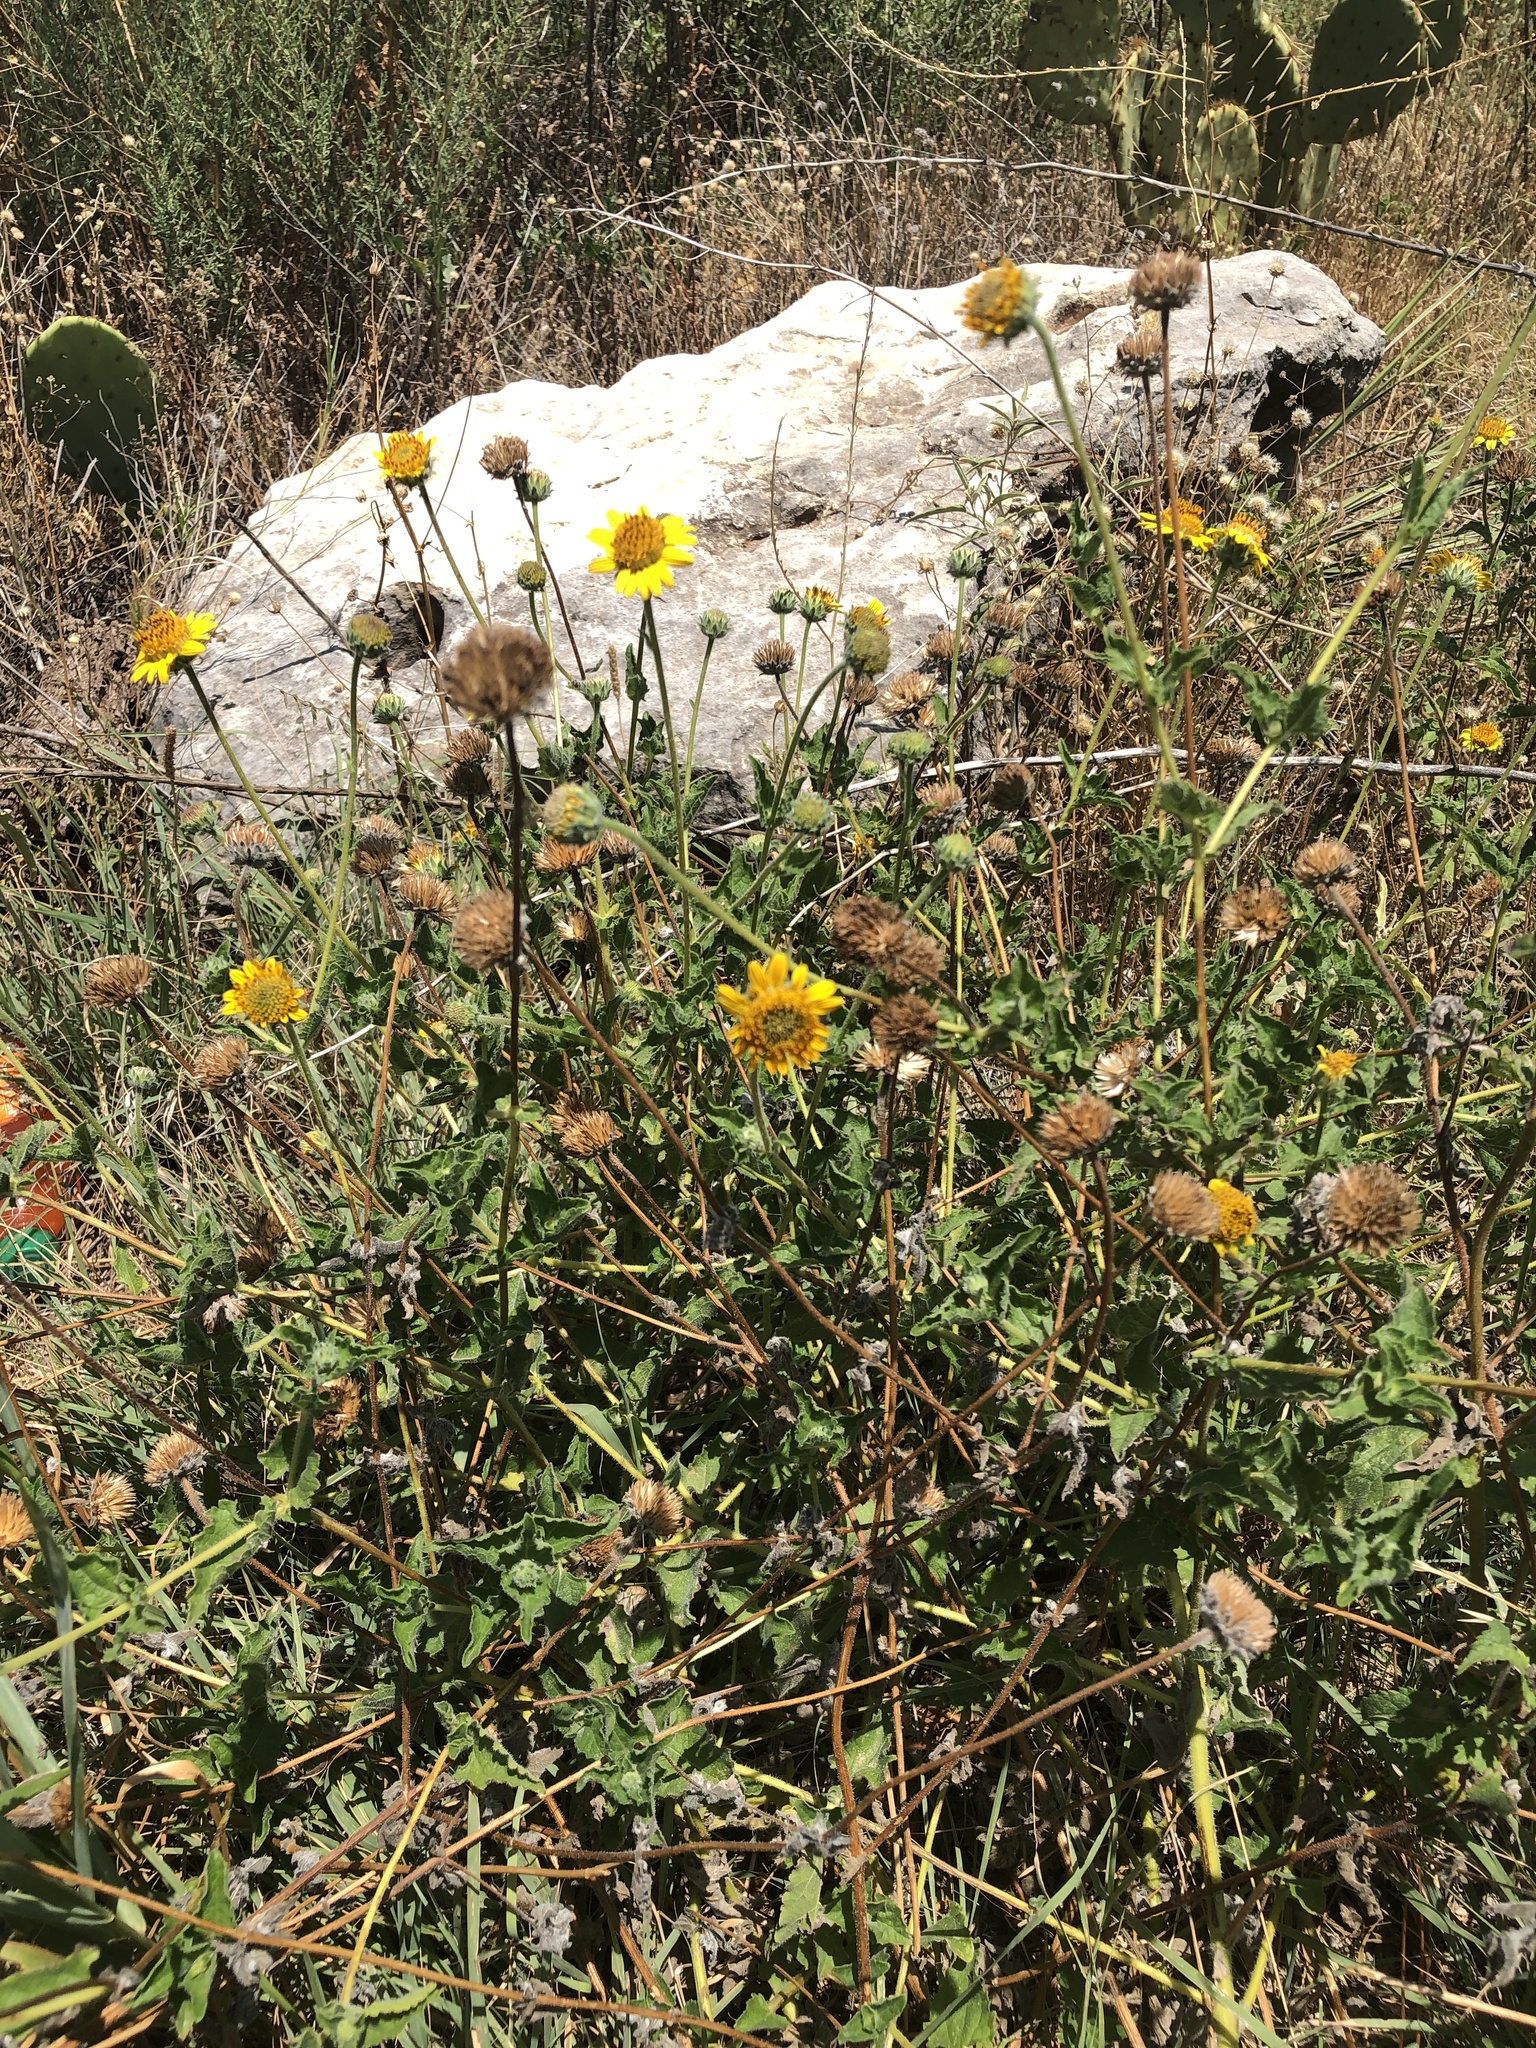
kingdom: Plantae
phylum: Tracheophyta
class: Magnoliopsida
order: Asterales
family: Asteraceae
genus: Simsia
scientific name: Simsia calva
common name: Awnless bush-sunflower
